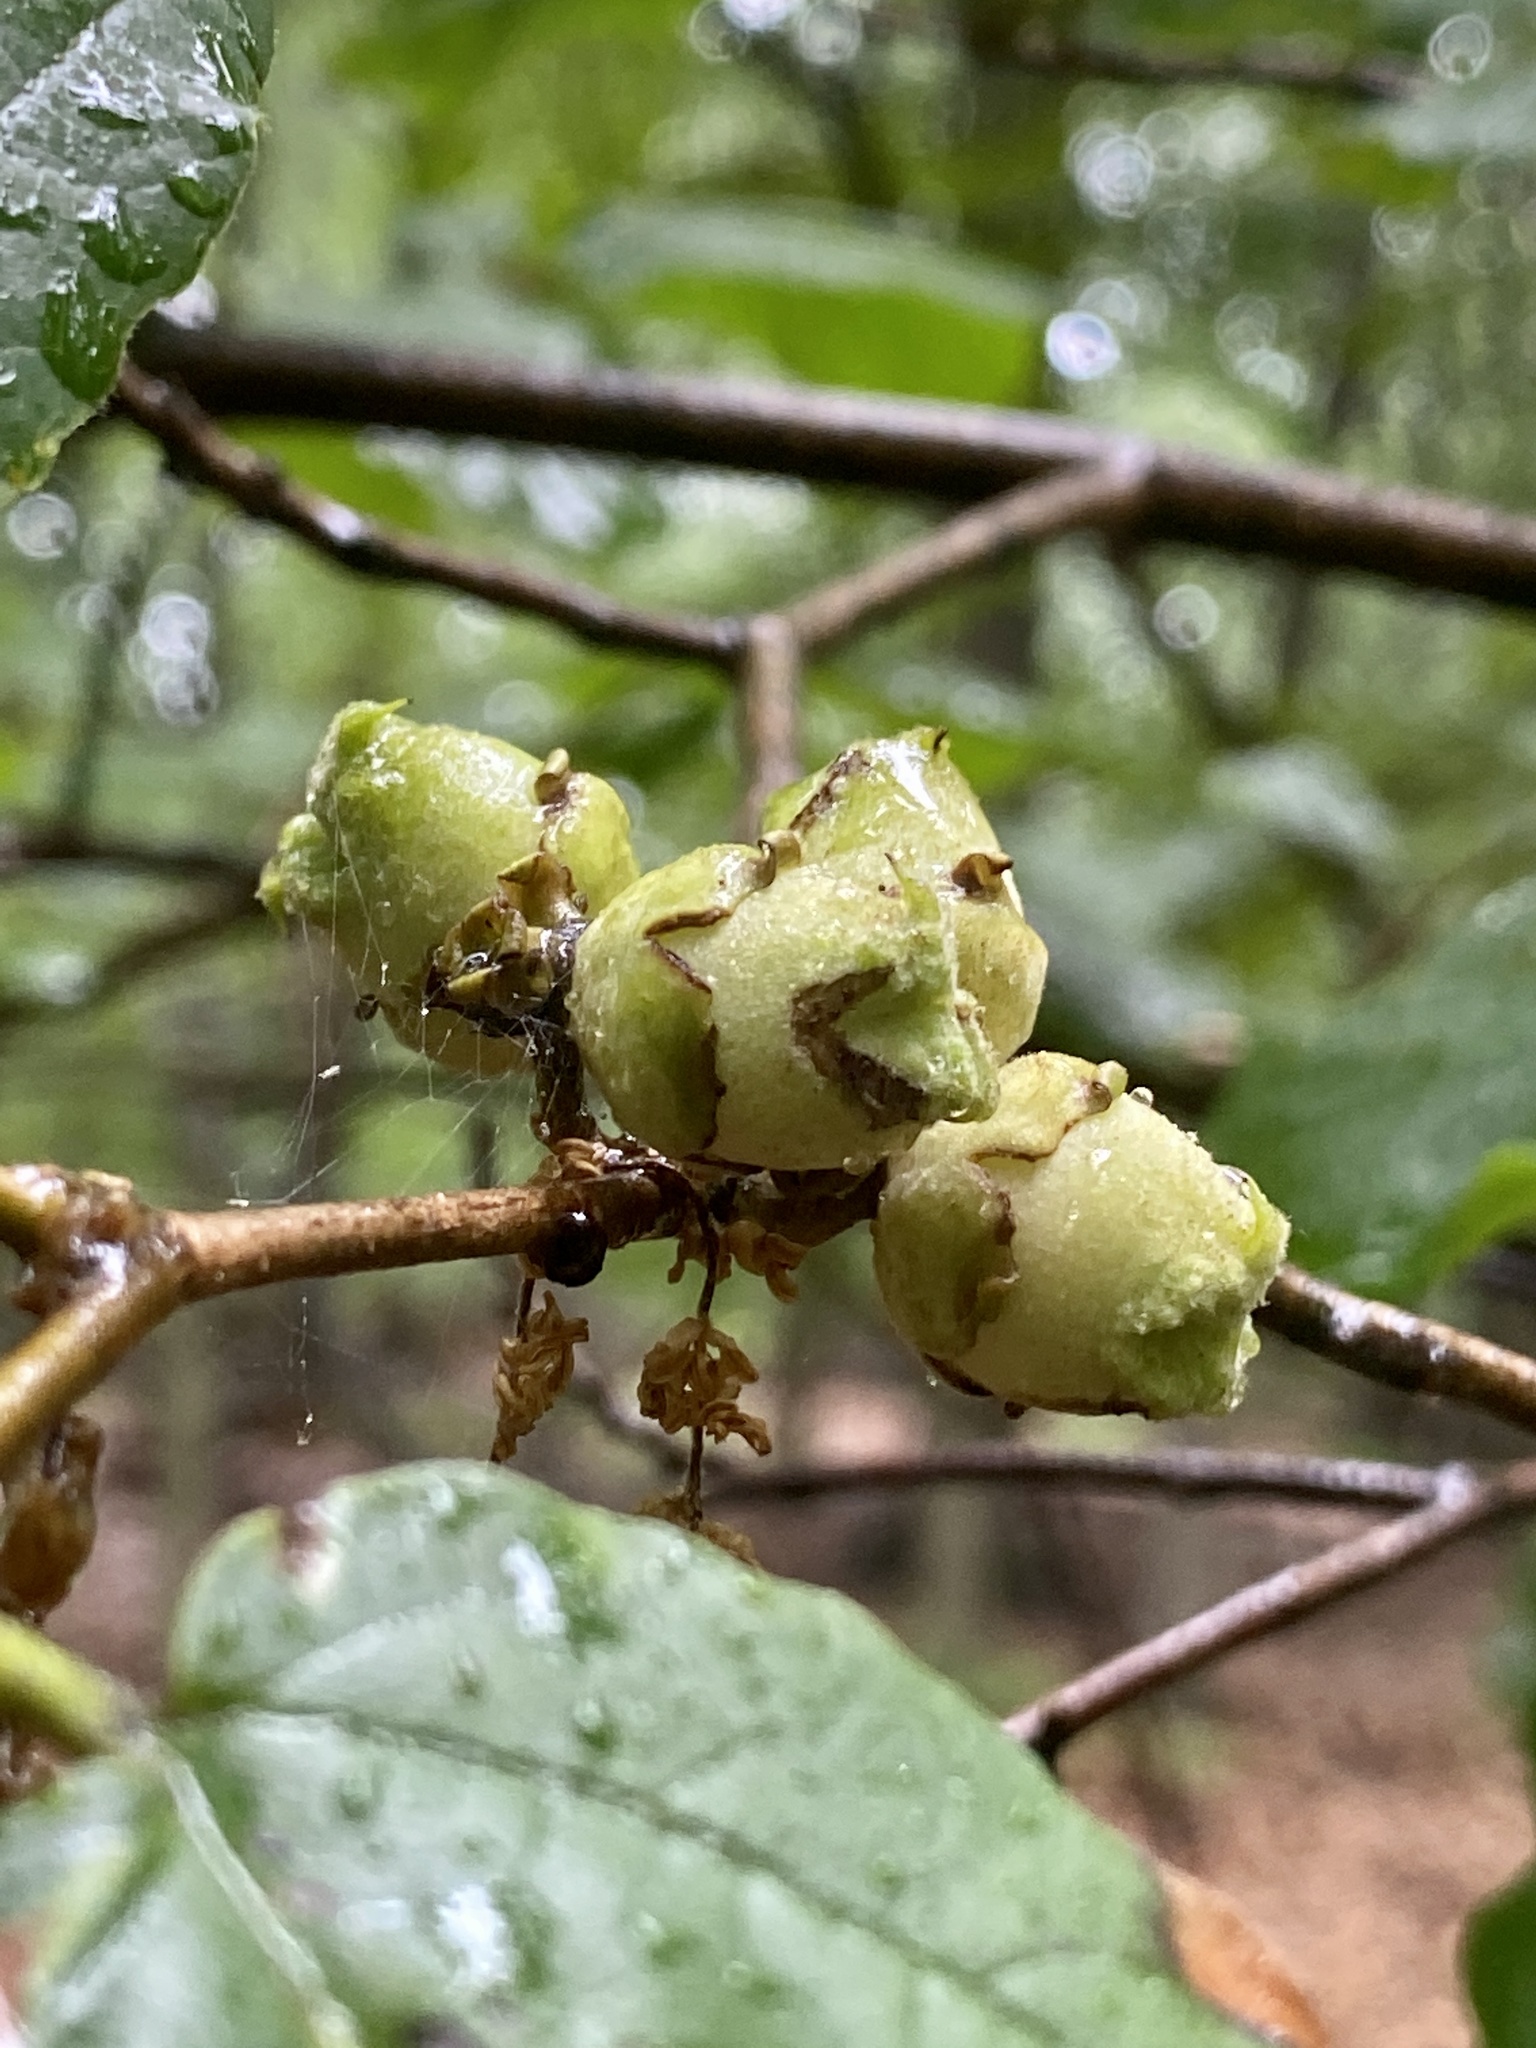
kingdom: Plantae
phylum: Tracheophyta
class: Magnoliopsida
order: Saxifragales
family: Hamamelidaceae
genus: Hamamelis
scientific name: Hamamelis virginiana
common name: Witch-hazel
